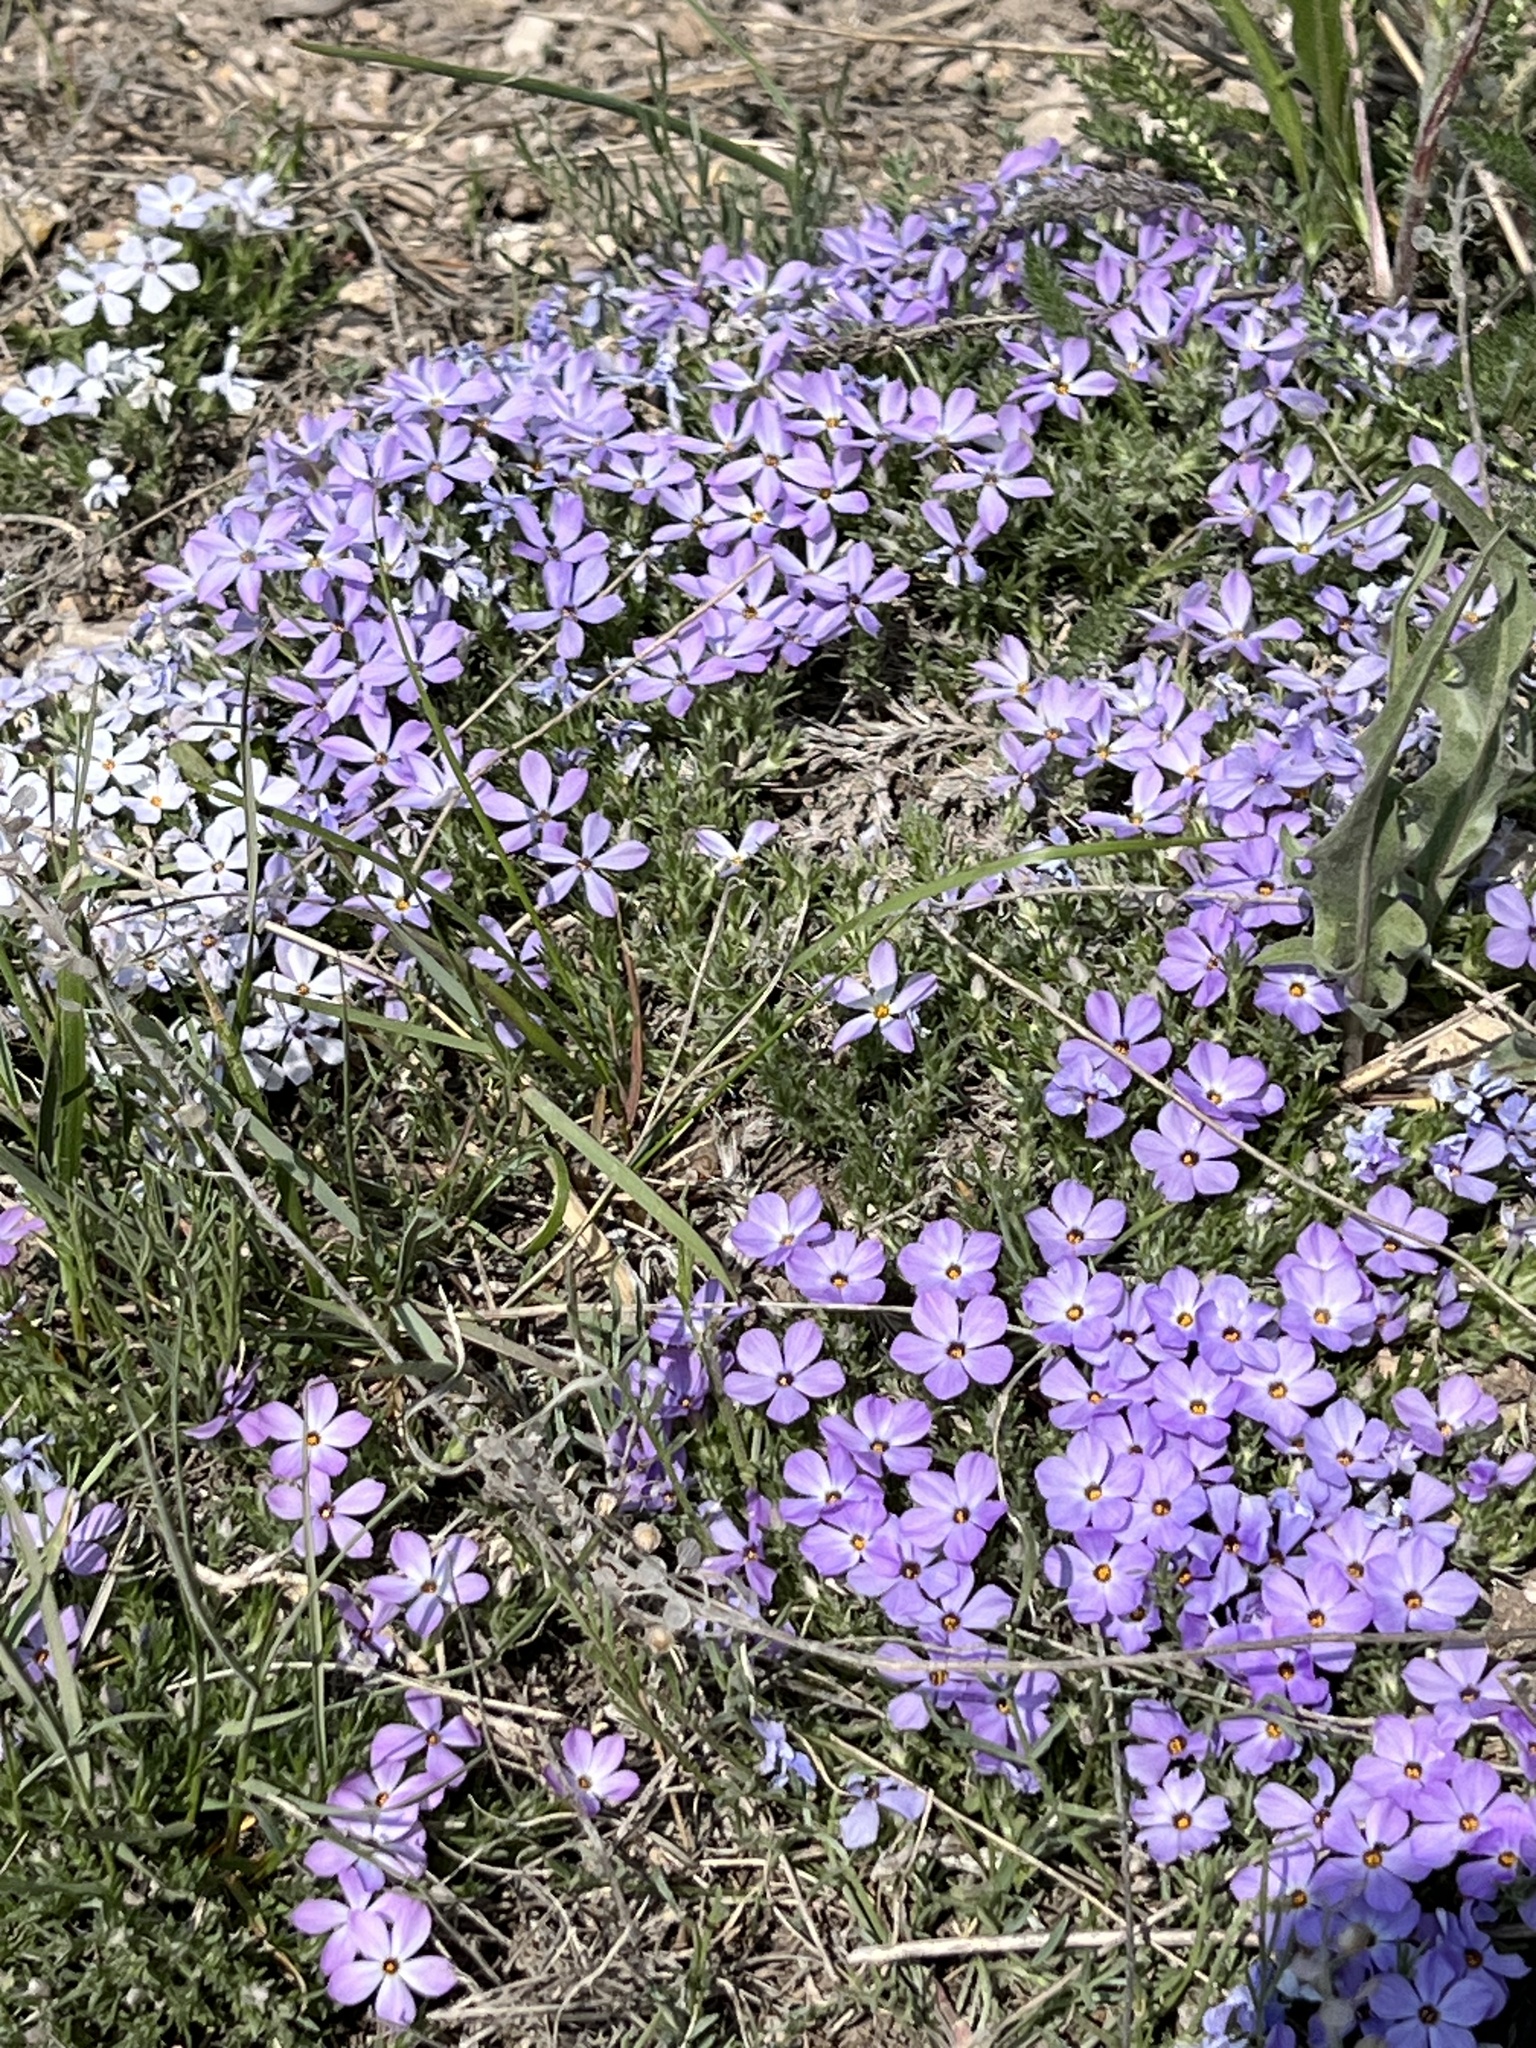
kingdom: Plantae
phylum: Tracheophyta
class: Magnoliopsida
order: Ericales
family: Polemoniaceae
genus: Phlox
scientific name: Phlox hoodii
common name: Moss phlox
